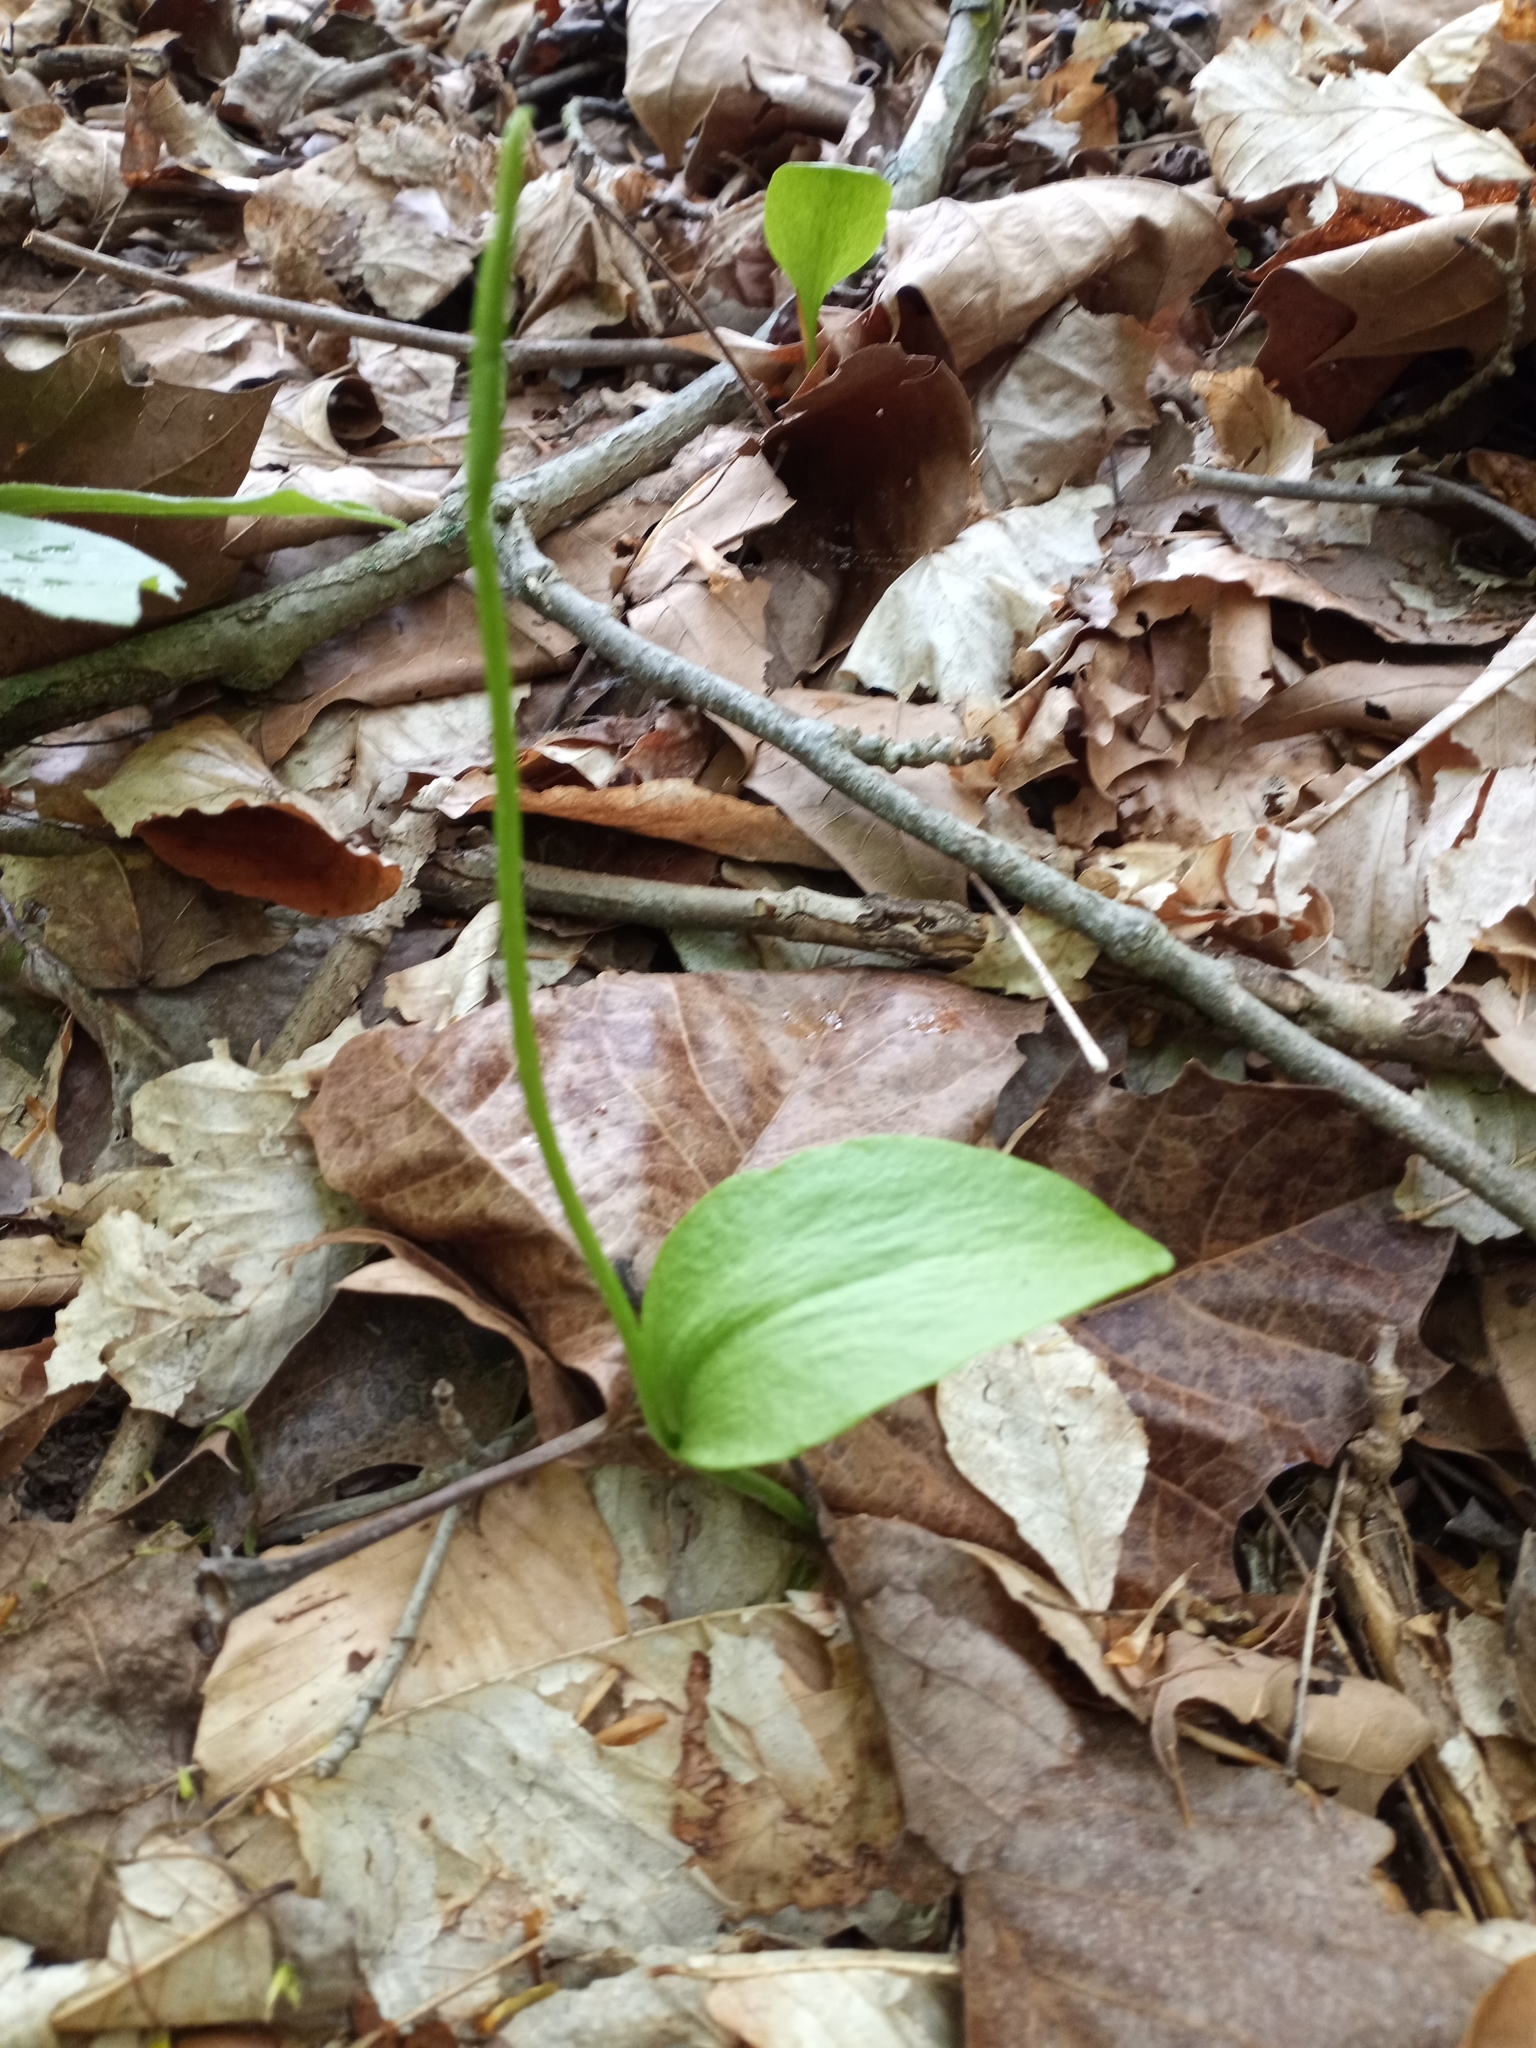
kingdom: Plantae
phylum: Tracheophyta
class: Polypodiopsida
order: Ophioglossales
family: Ophioglossaceae
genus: Ophioglossum
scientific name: Ophioglossum vulgatum
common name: Adder's-tongue
